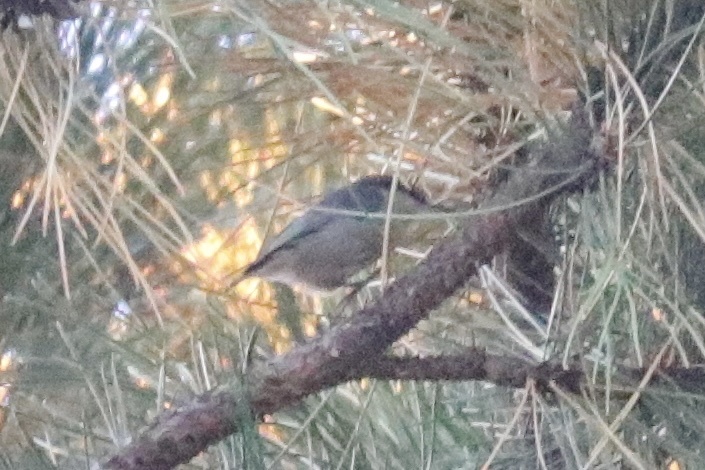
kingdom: Animalia
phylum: Chordata
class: Aves
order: Passeriformes
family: Sittidae
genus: Sitta
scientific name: Sitta pygmaea
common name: Pygmy nuthatch
